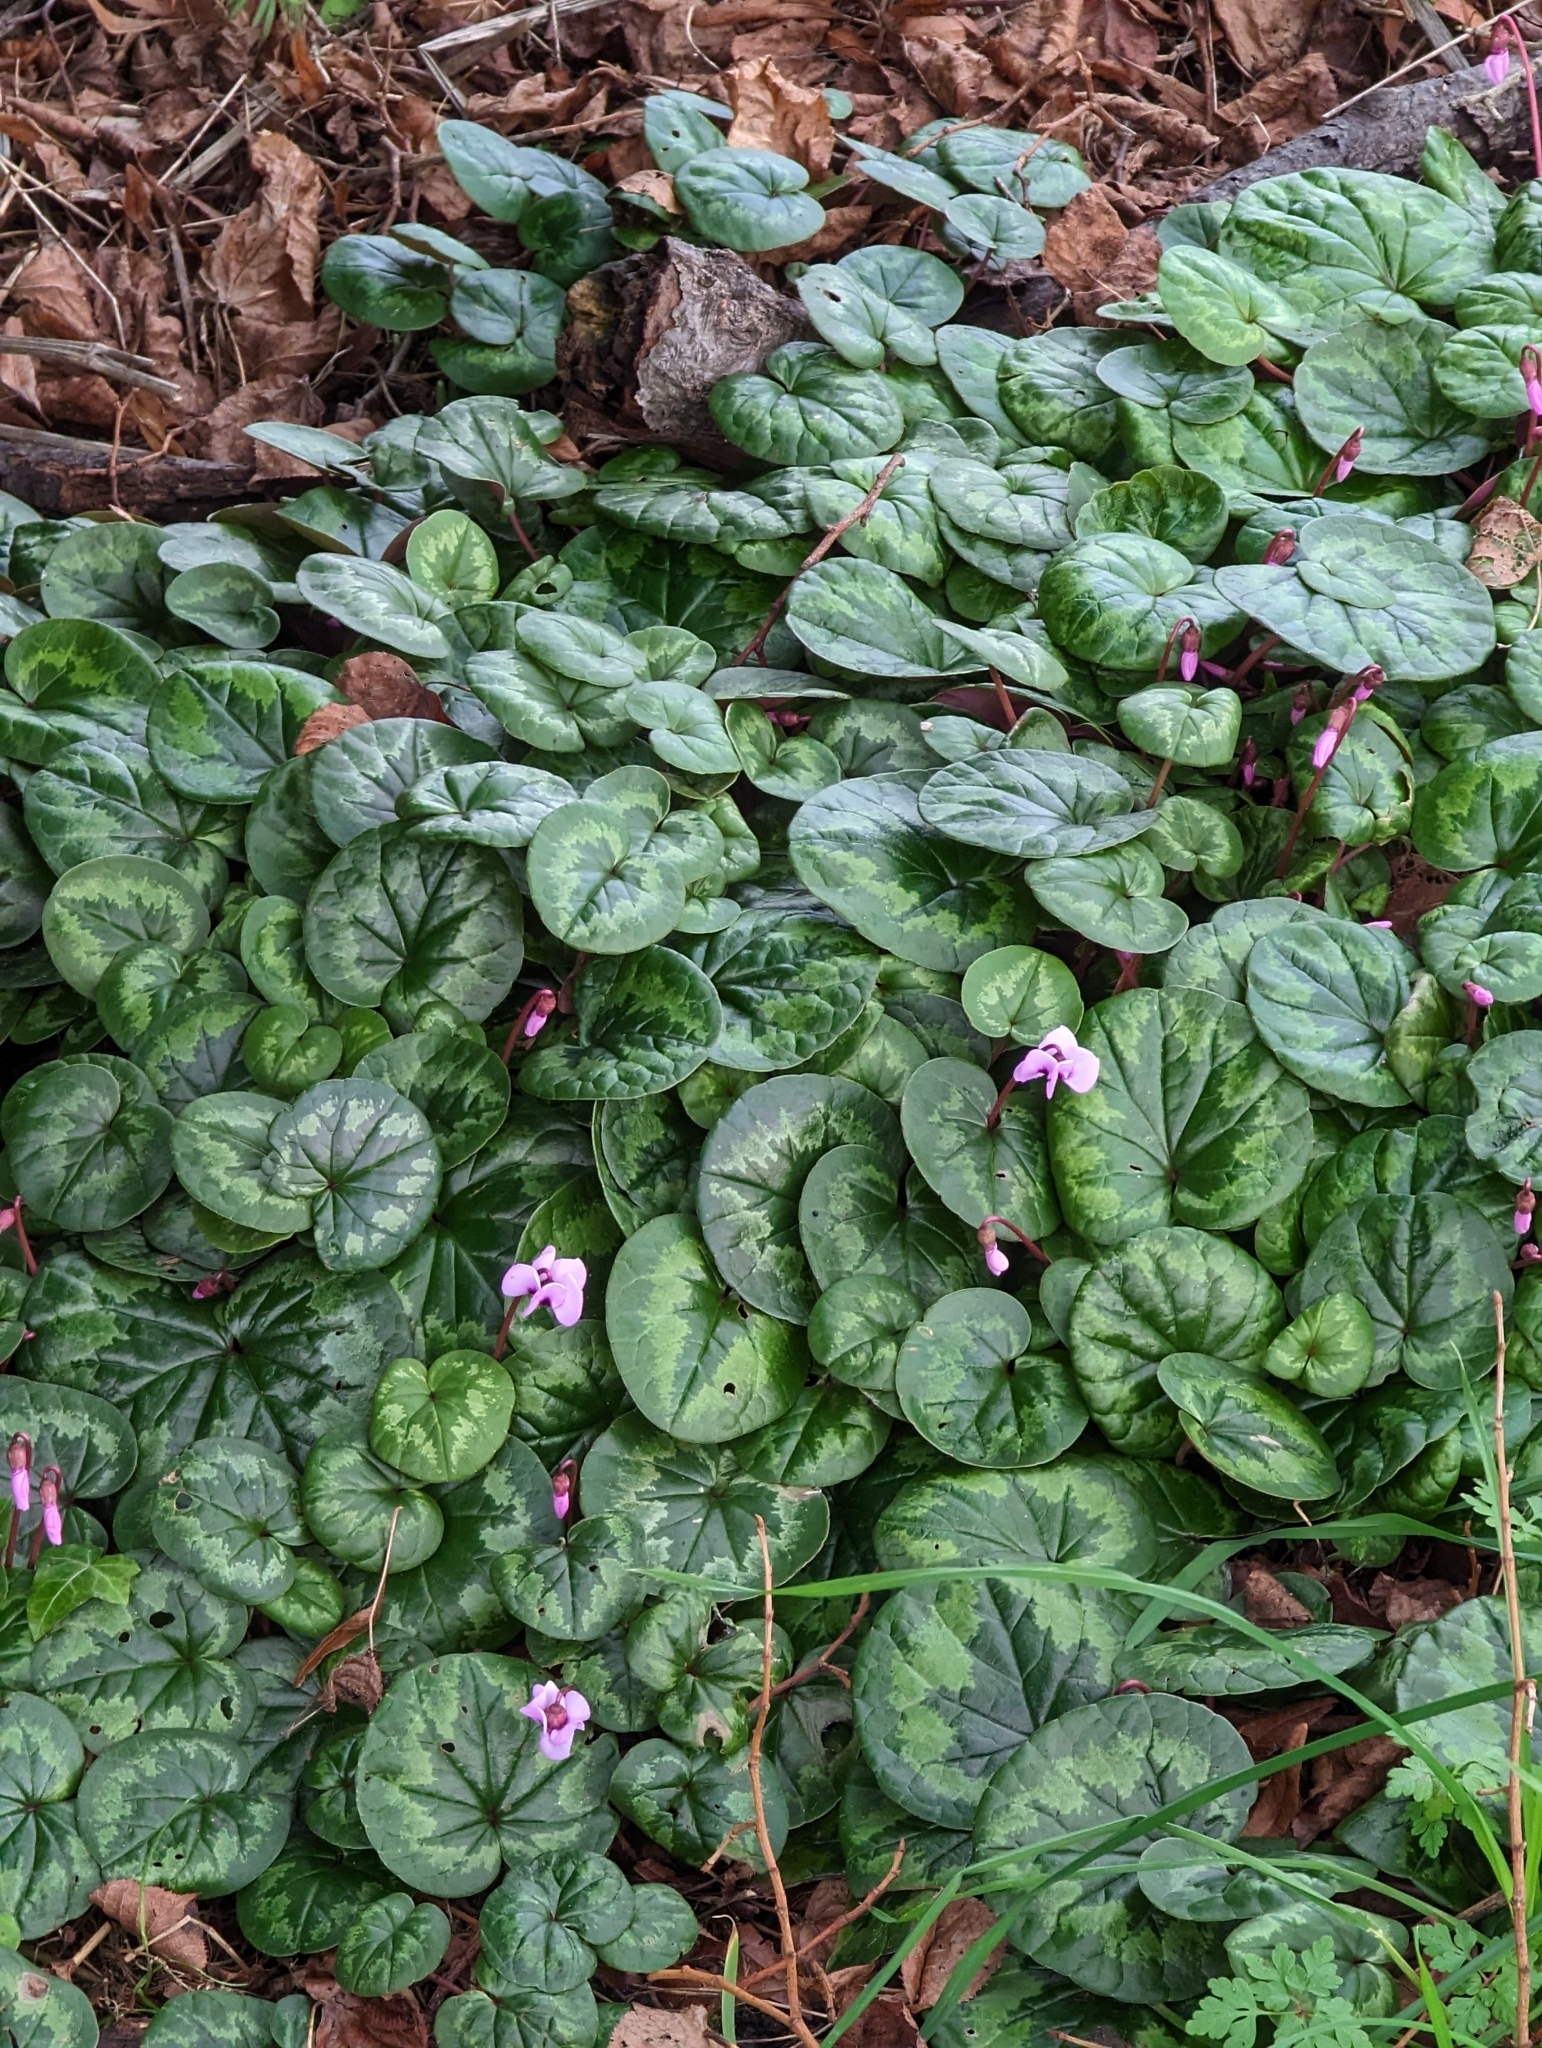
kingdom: Plantae
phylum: Tracheophyta
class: Magnoliopsida
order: Ericales
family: Primulaceae
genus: Cyclamen
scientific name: Cyclamen coum
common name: Eastern sowbread
